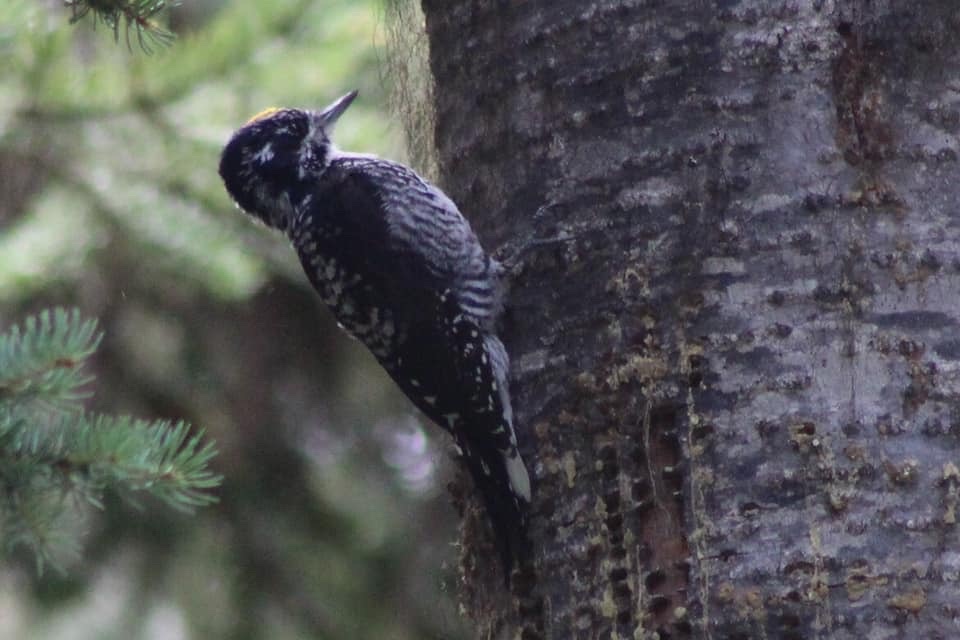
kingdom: Animalia
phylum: Chordata
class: Aves
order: Piciformes
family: Picidae
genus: Picoides
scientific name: Picoides dorsalis
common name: American three-toed woodpecker
